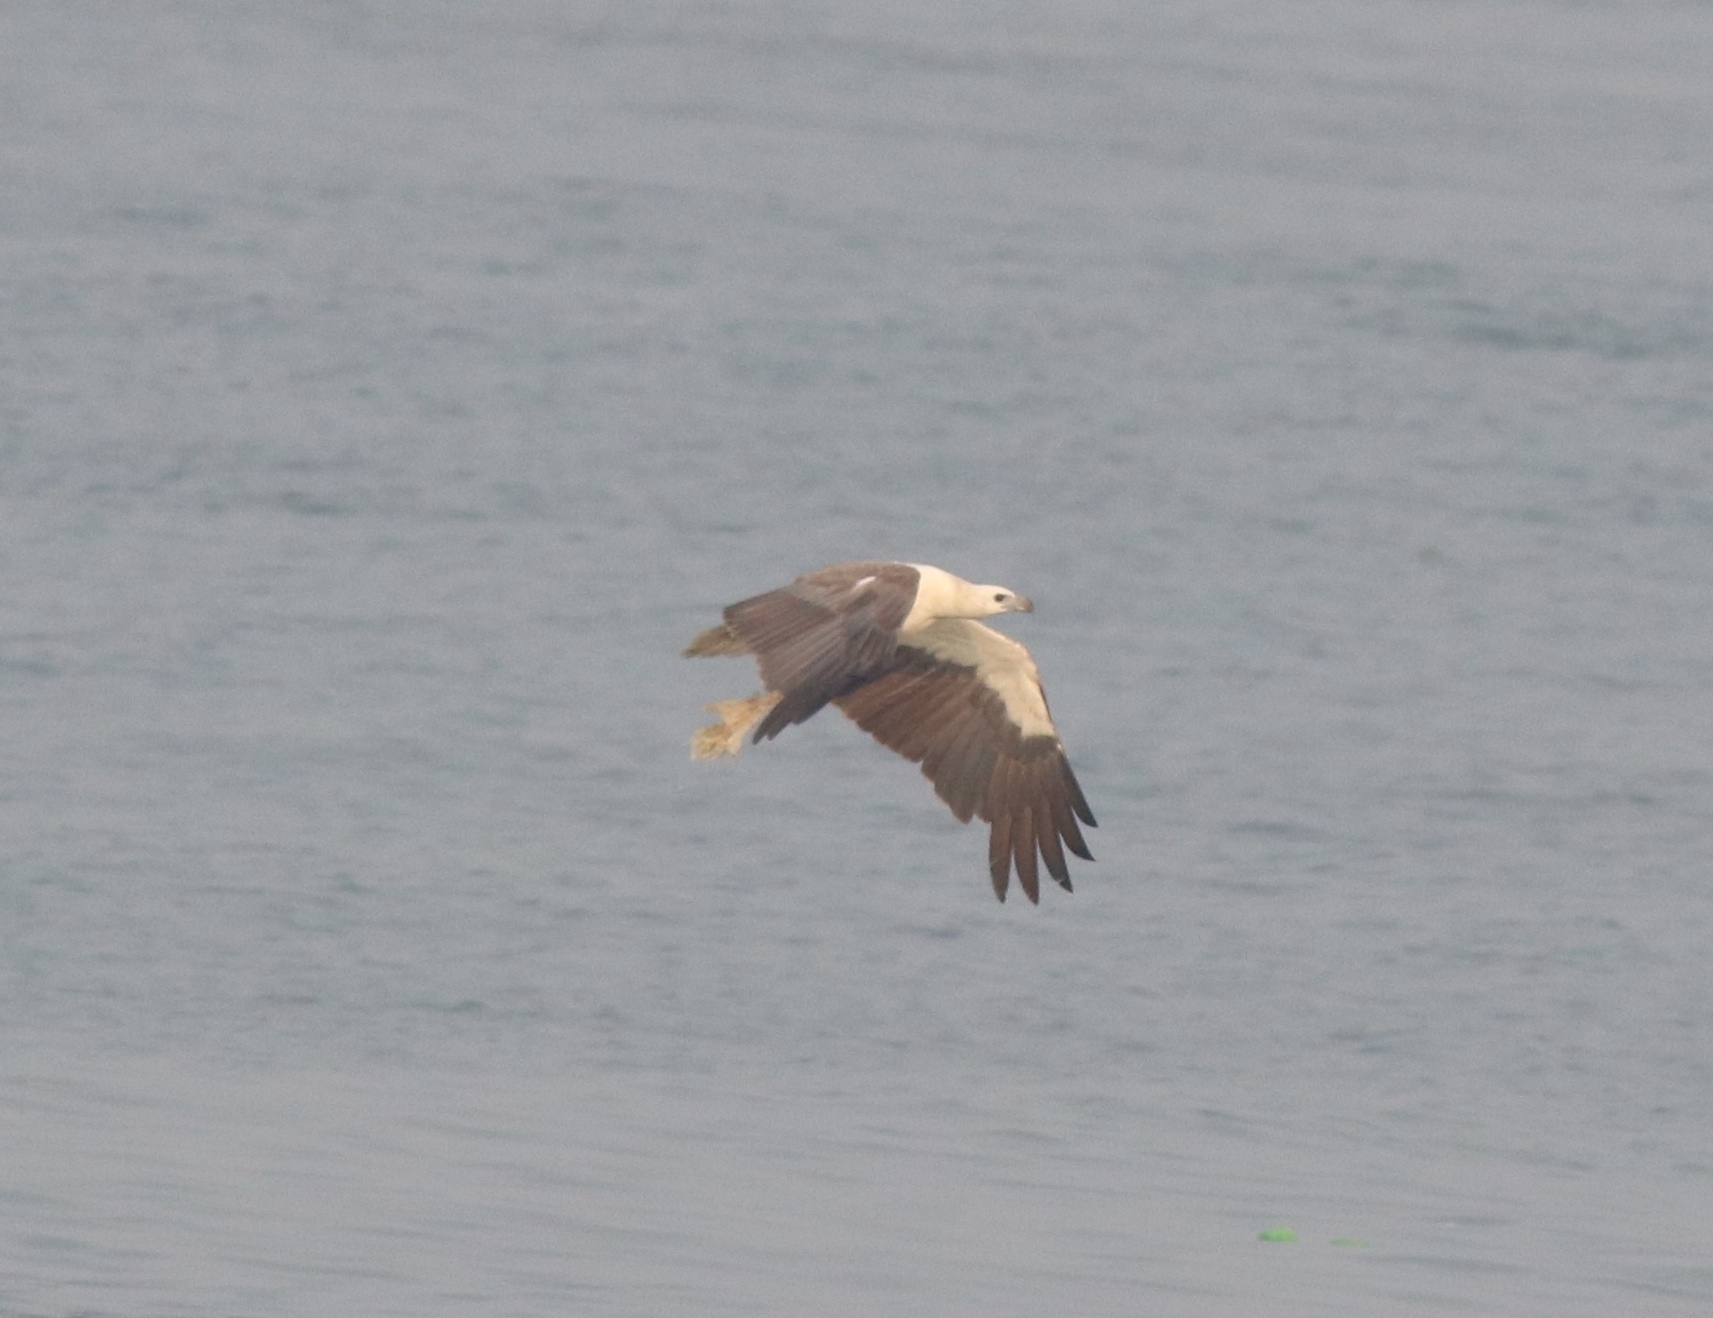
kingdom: Animalia
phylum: Chordata
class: Aves
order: Accipitriformes
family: Accipitridae
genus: Haliaeetus
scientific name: Haliaeetus leucogaster
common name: White-bellied sea eagle
